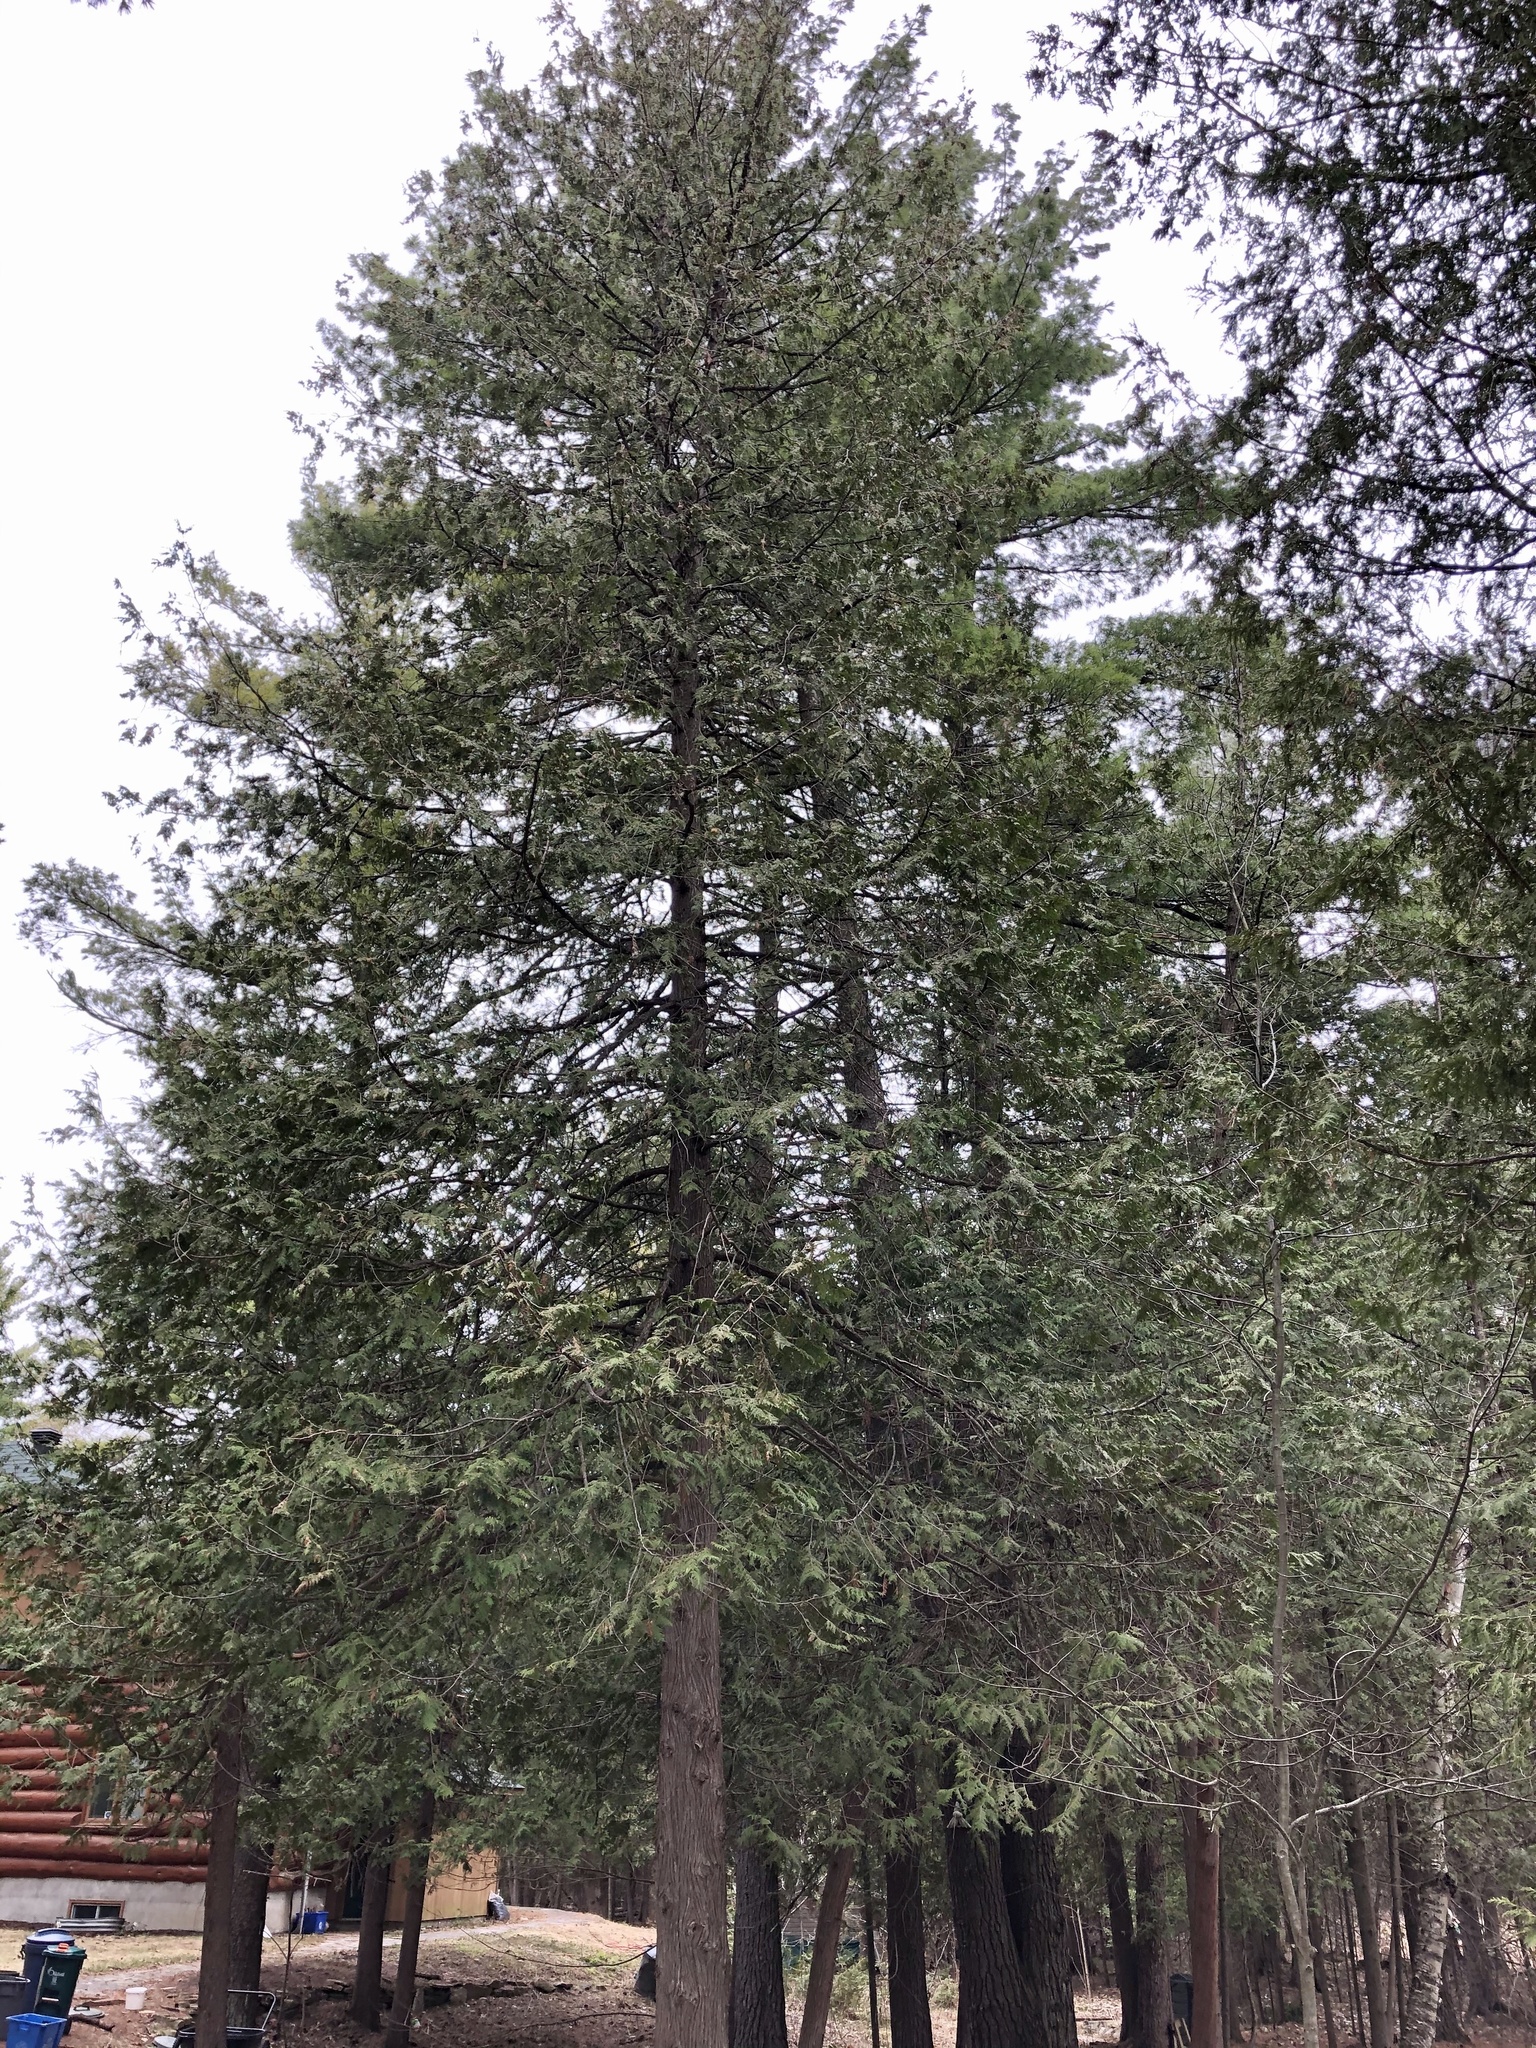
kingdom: Plantae
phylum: Tracheophyta
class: Pinopsida
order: Pinales
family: Cupressaceae
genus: Thuja
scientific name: Thuja occidentalis
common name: Northern white-cedar
